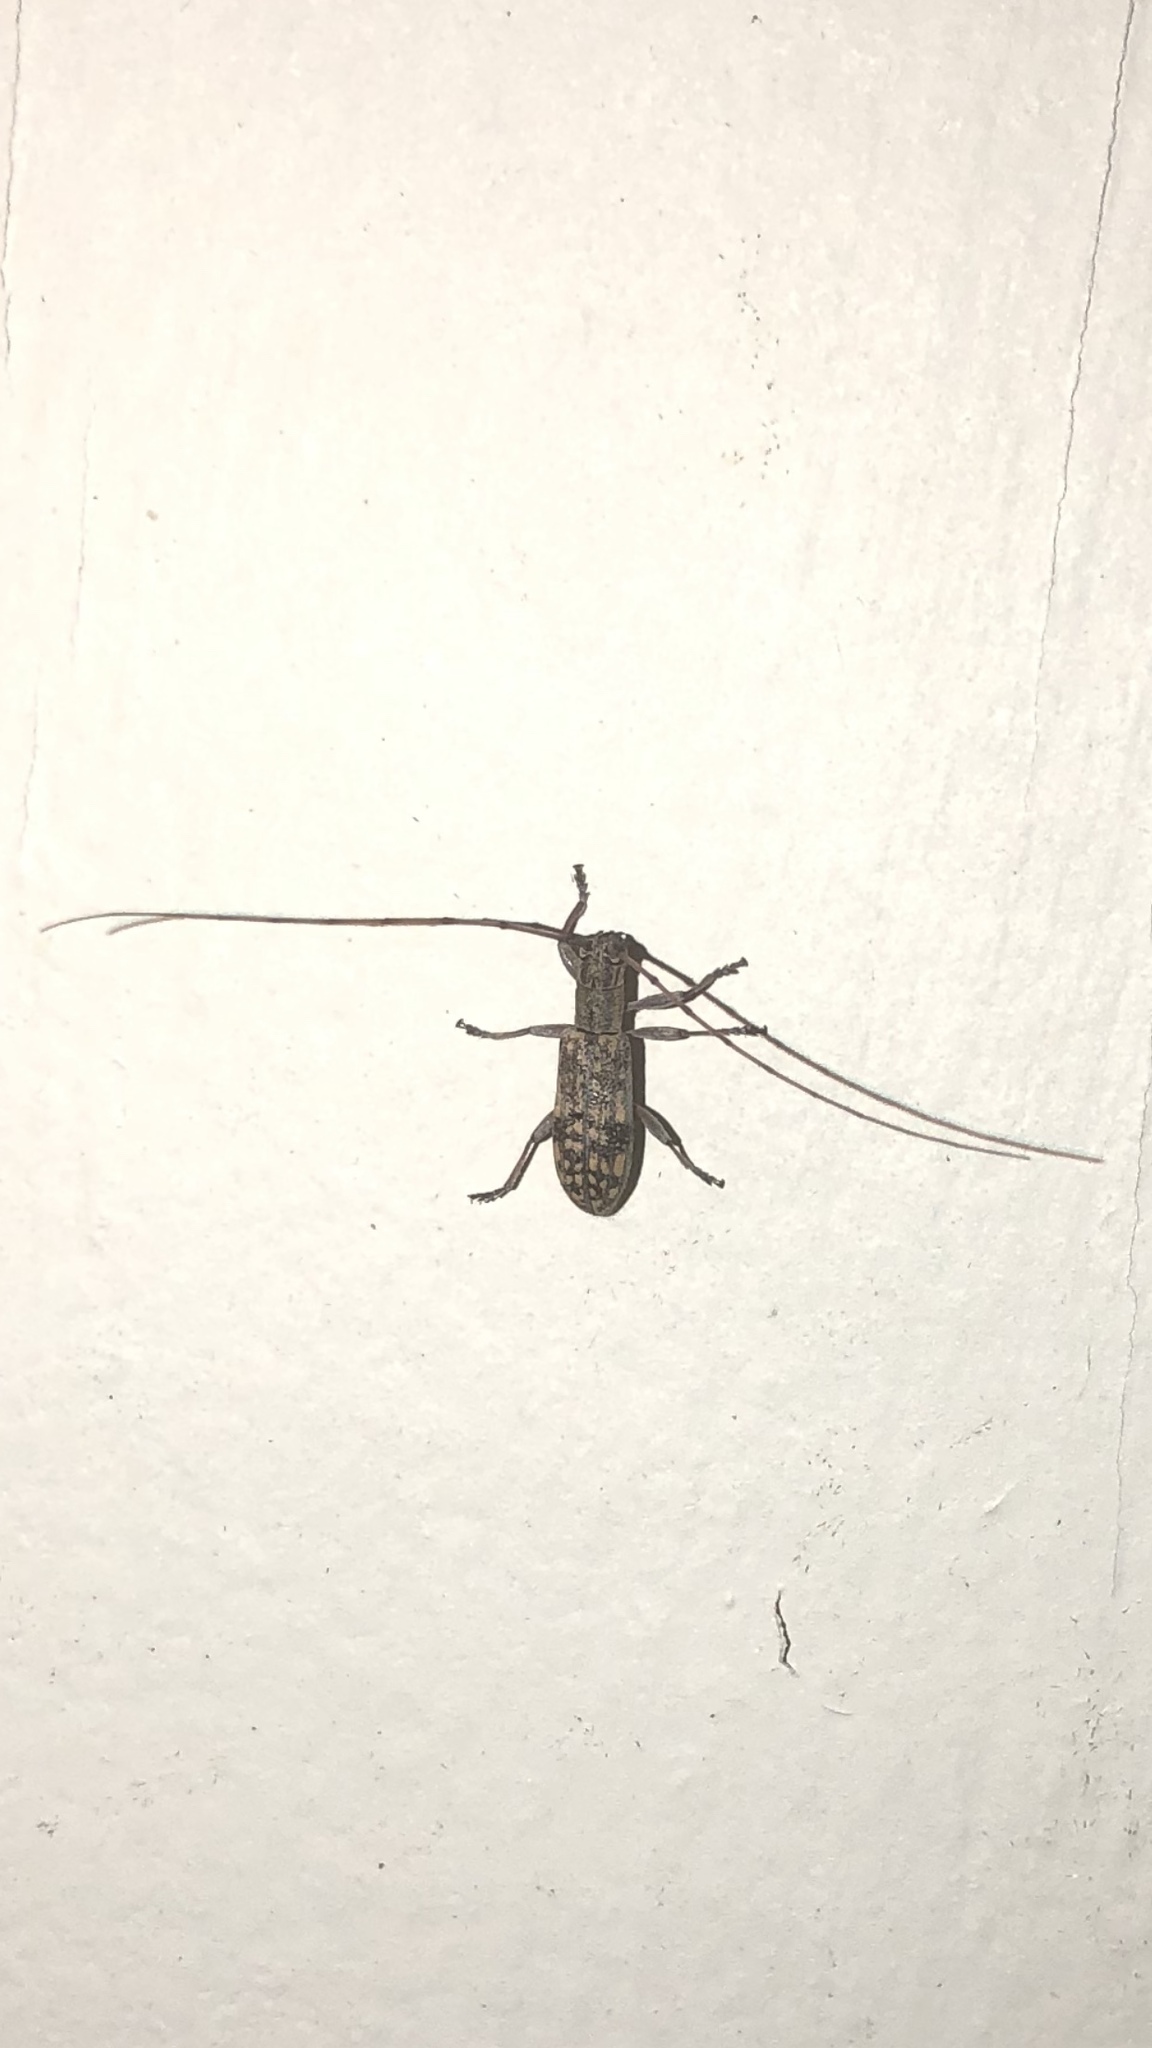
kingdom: Animalia
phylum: Arthropoda
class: Insecta
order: Coleoptera
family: Cerambycidae
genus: Dorcaschema
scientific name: Dorcaschema alternatum
